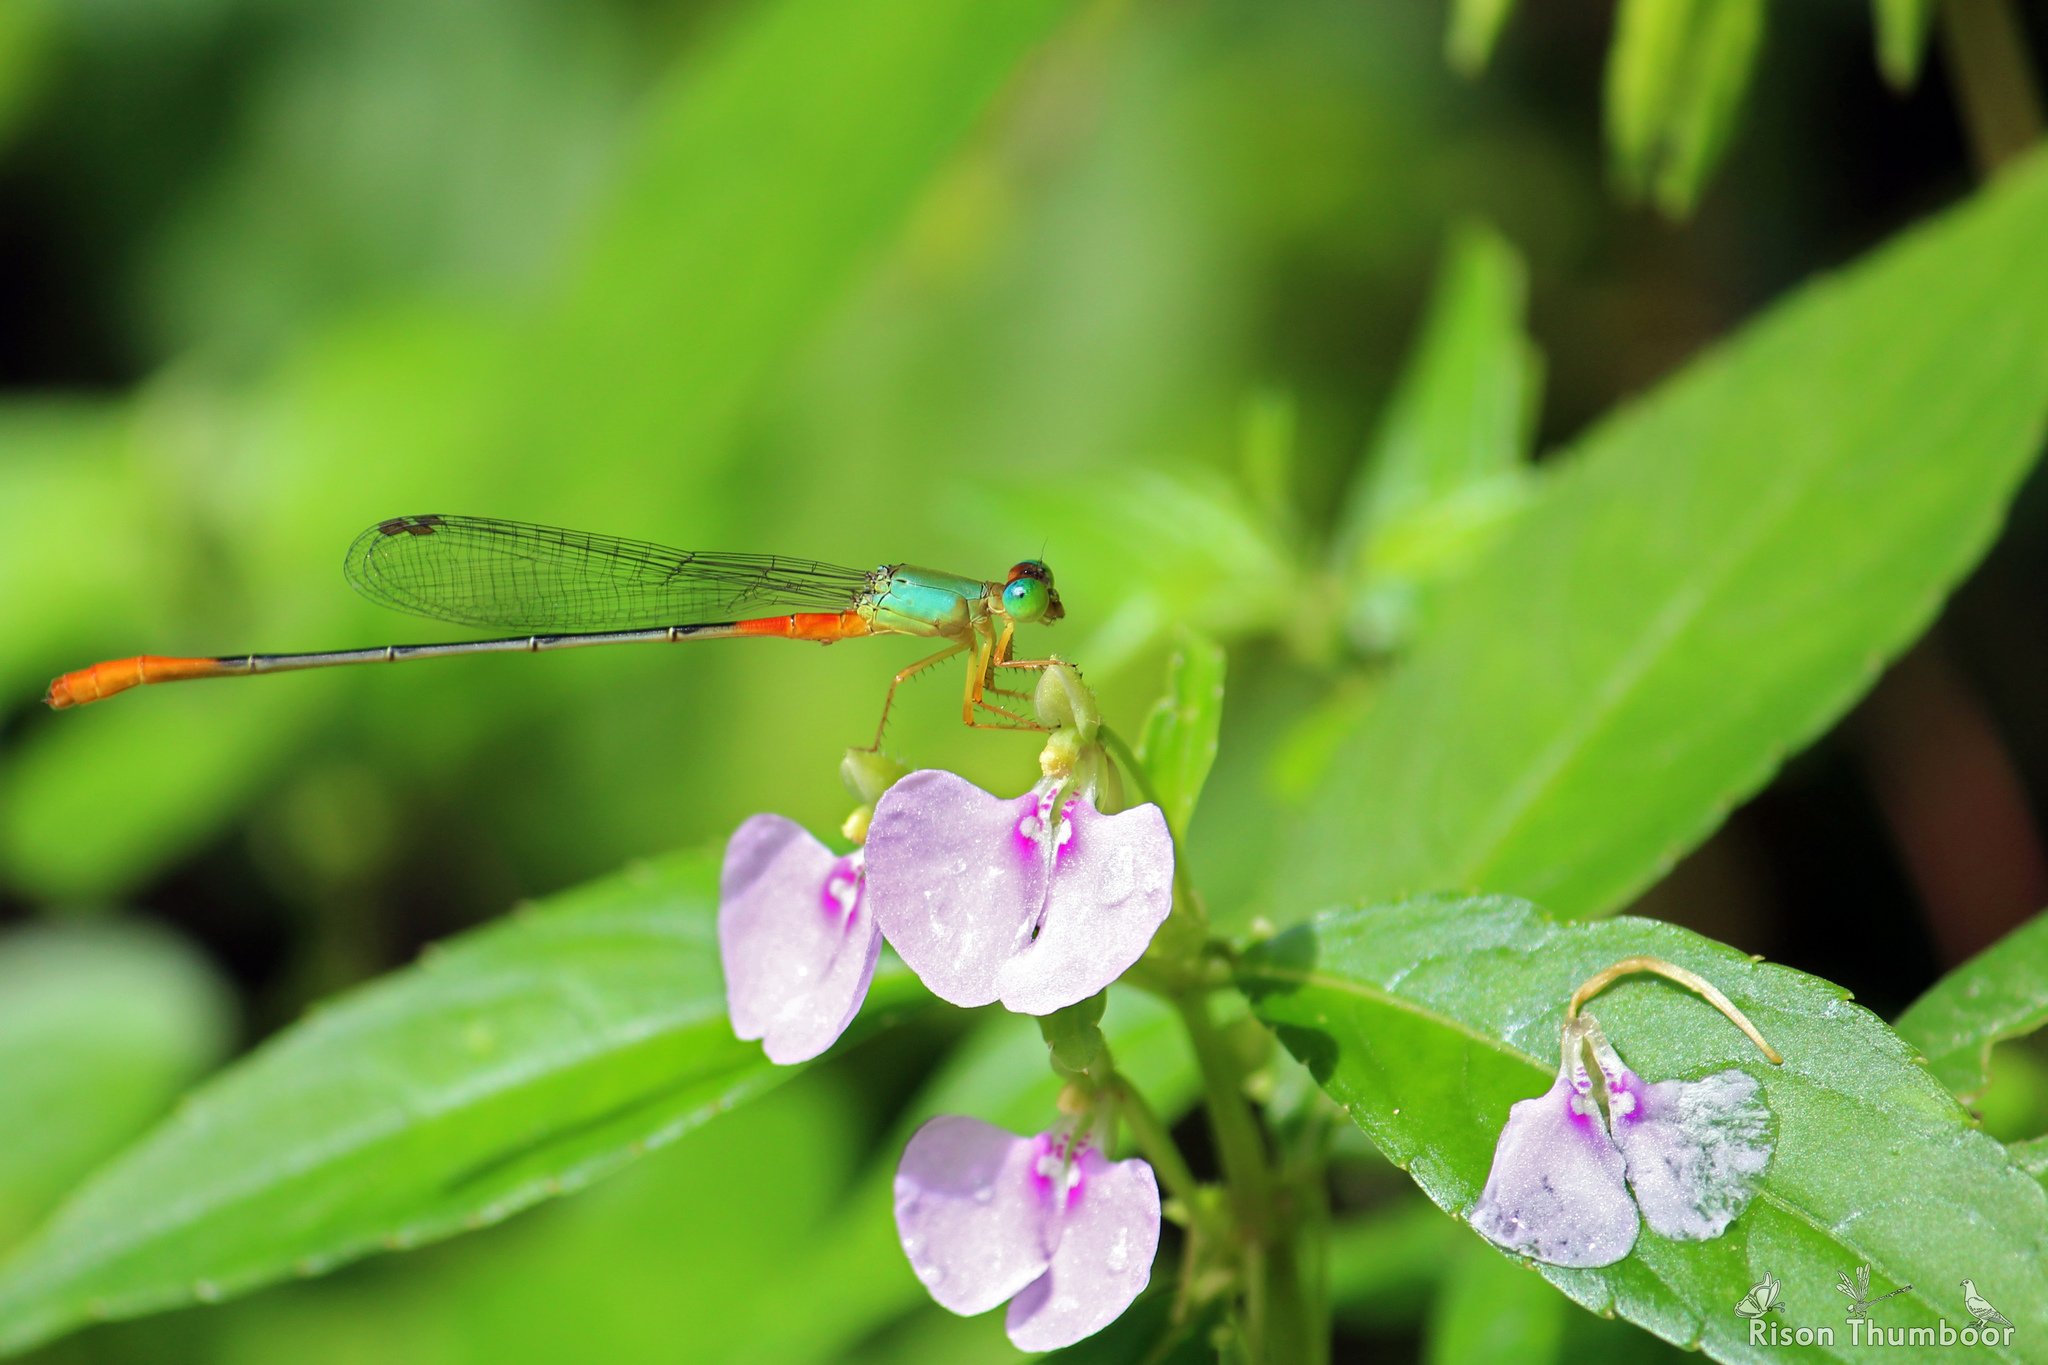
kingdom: Animalia
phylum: Arthropoda
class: Insecta
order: Odonata
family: Coenagrionidae
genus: Ceriagrion
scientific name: Ceriagrion cerinorubellum
